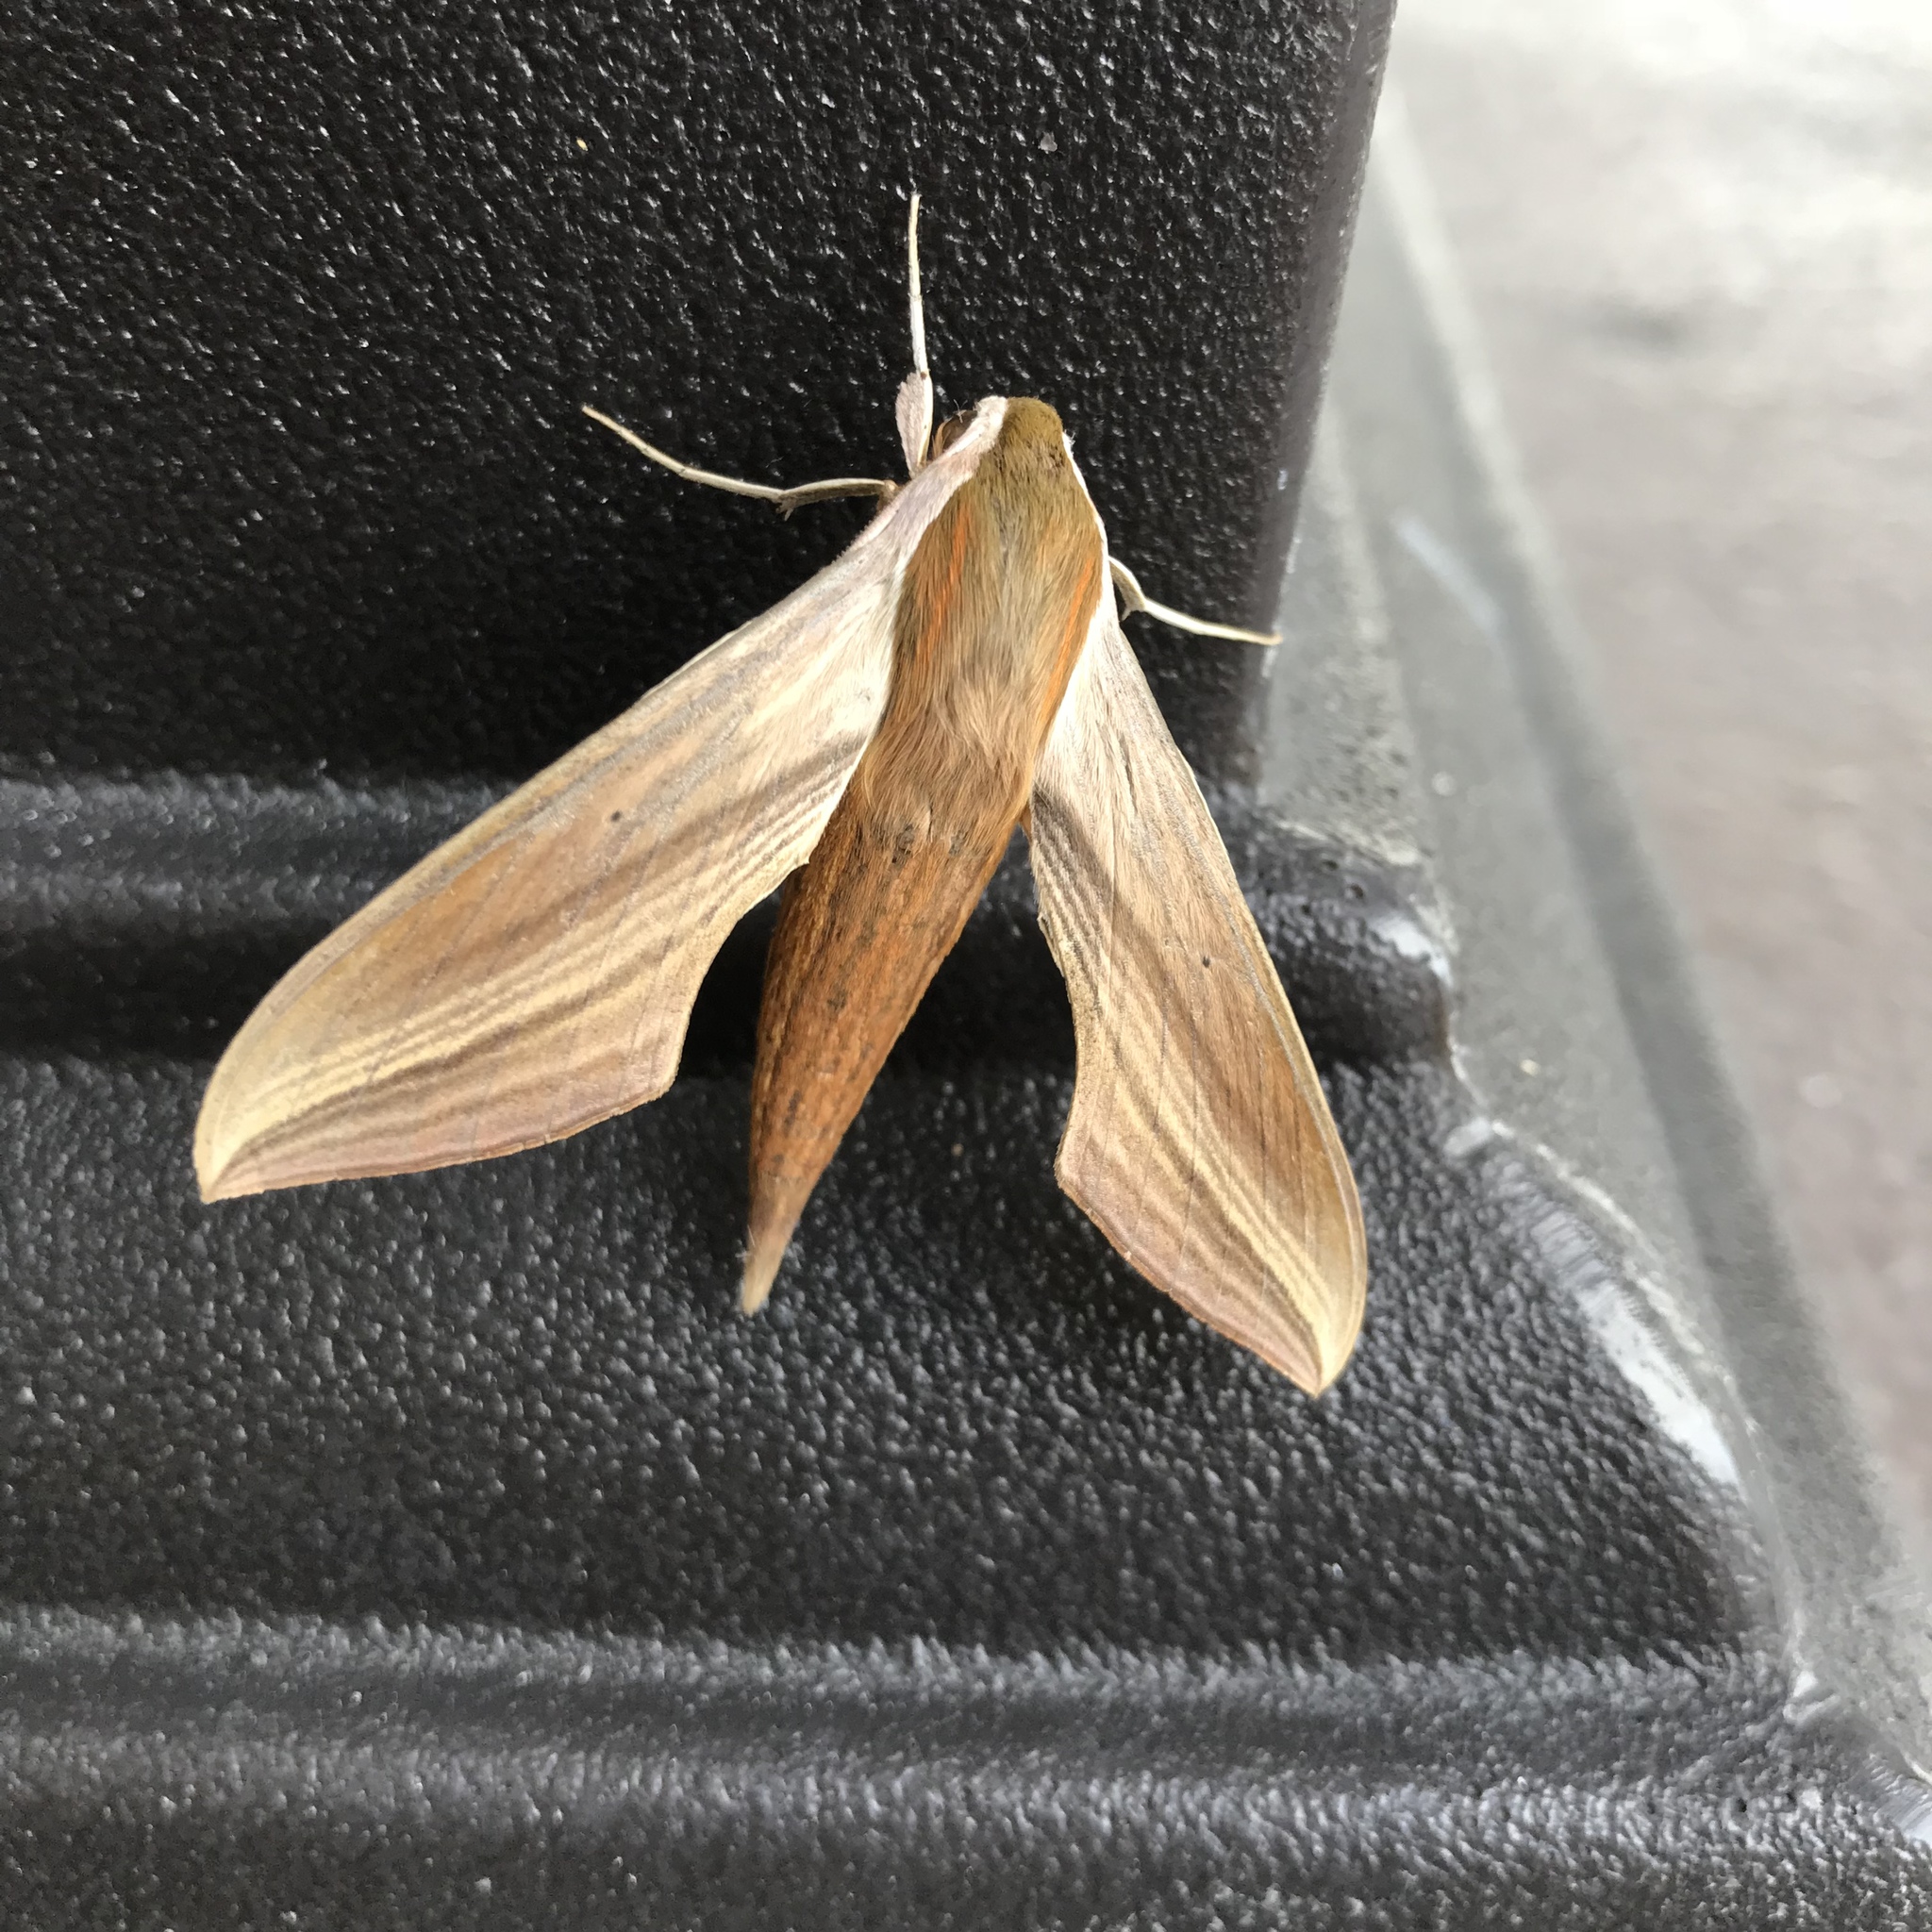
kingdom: Animalia
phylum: Arthropoda
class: Insecta
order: Lepidoptera
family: Sphingidae
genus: Xylophanes
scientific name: Xylophanes tersa
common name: Tersa sphinx
